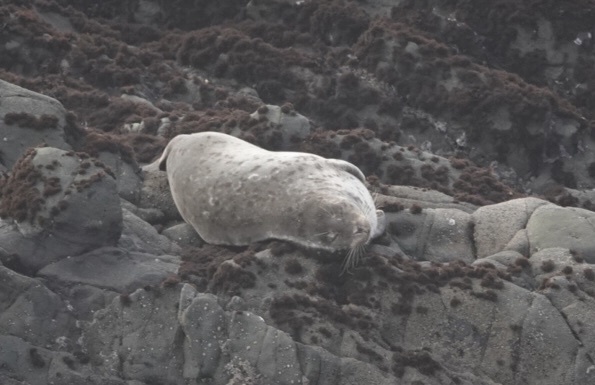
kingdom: Animalia
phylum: Chordata
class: Mammalia
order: Carnivora
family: Phocidae
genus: Phoca
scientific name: Phoca vitulina
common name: Harbor seal
